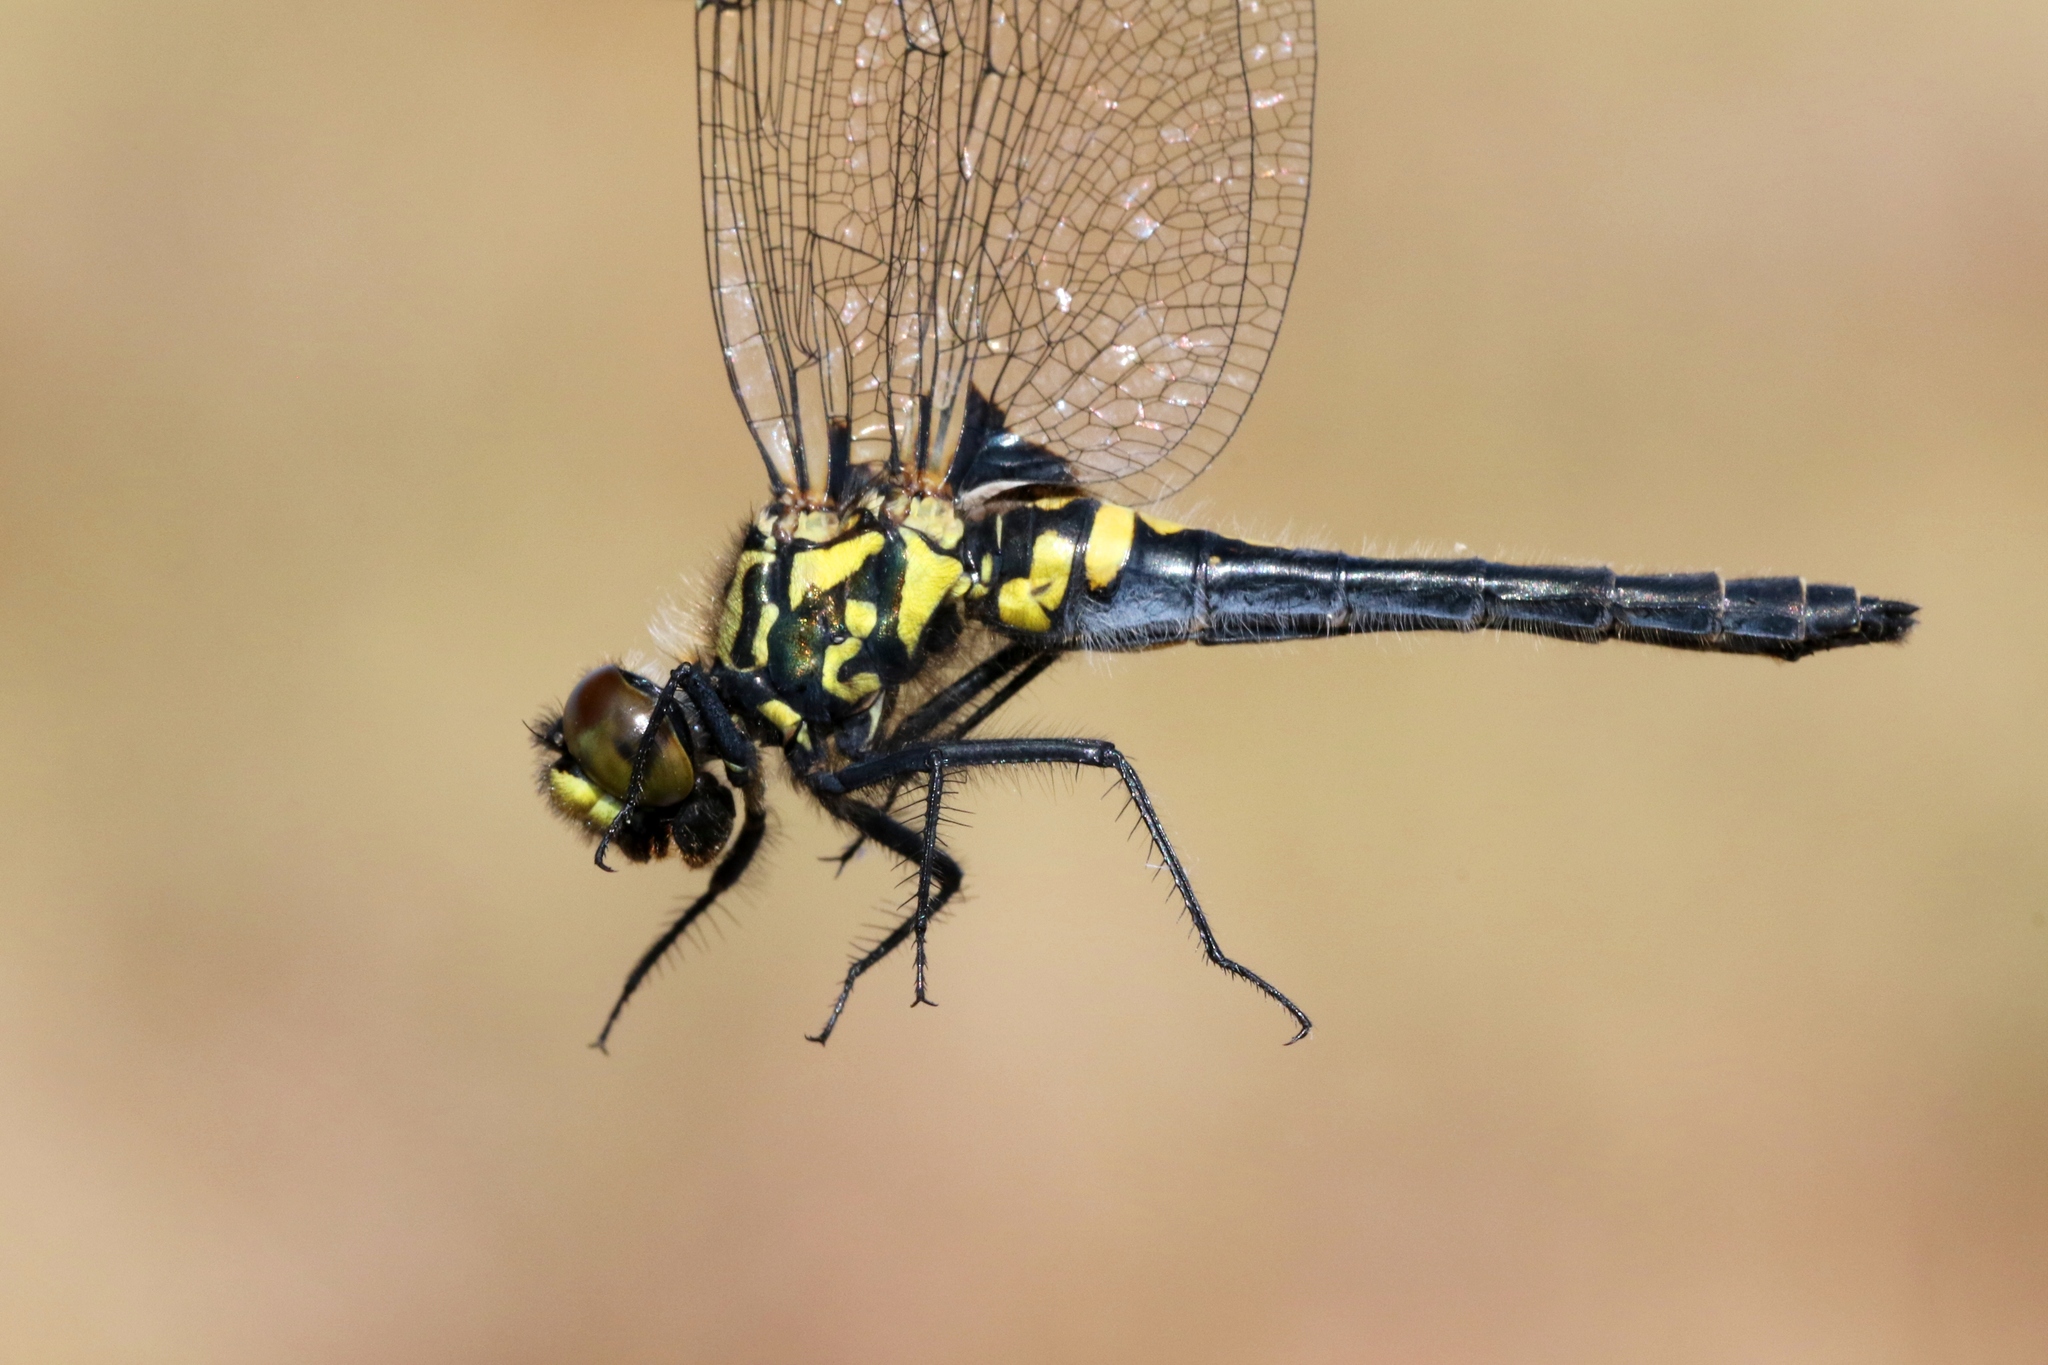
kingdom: Animalia
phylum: Arthropoda
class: Insecta
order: Odonata
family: Libellulidae
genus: Leucorrhinia
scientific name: Leucorrhinia patricia
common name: Canada whiteface
